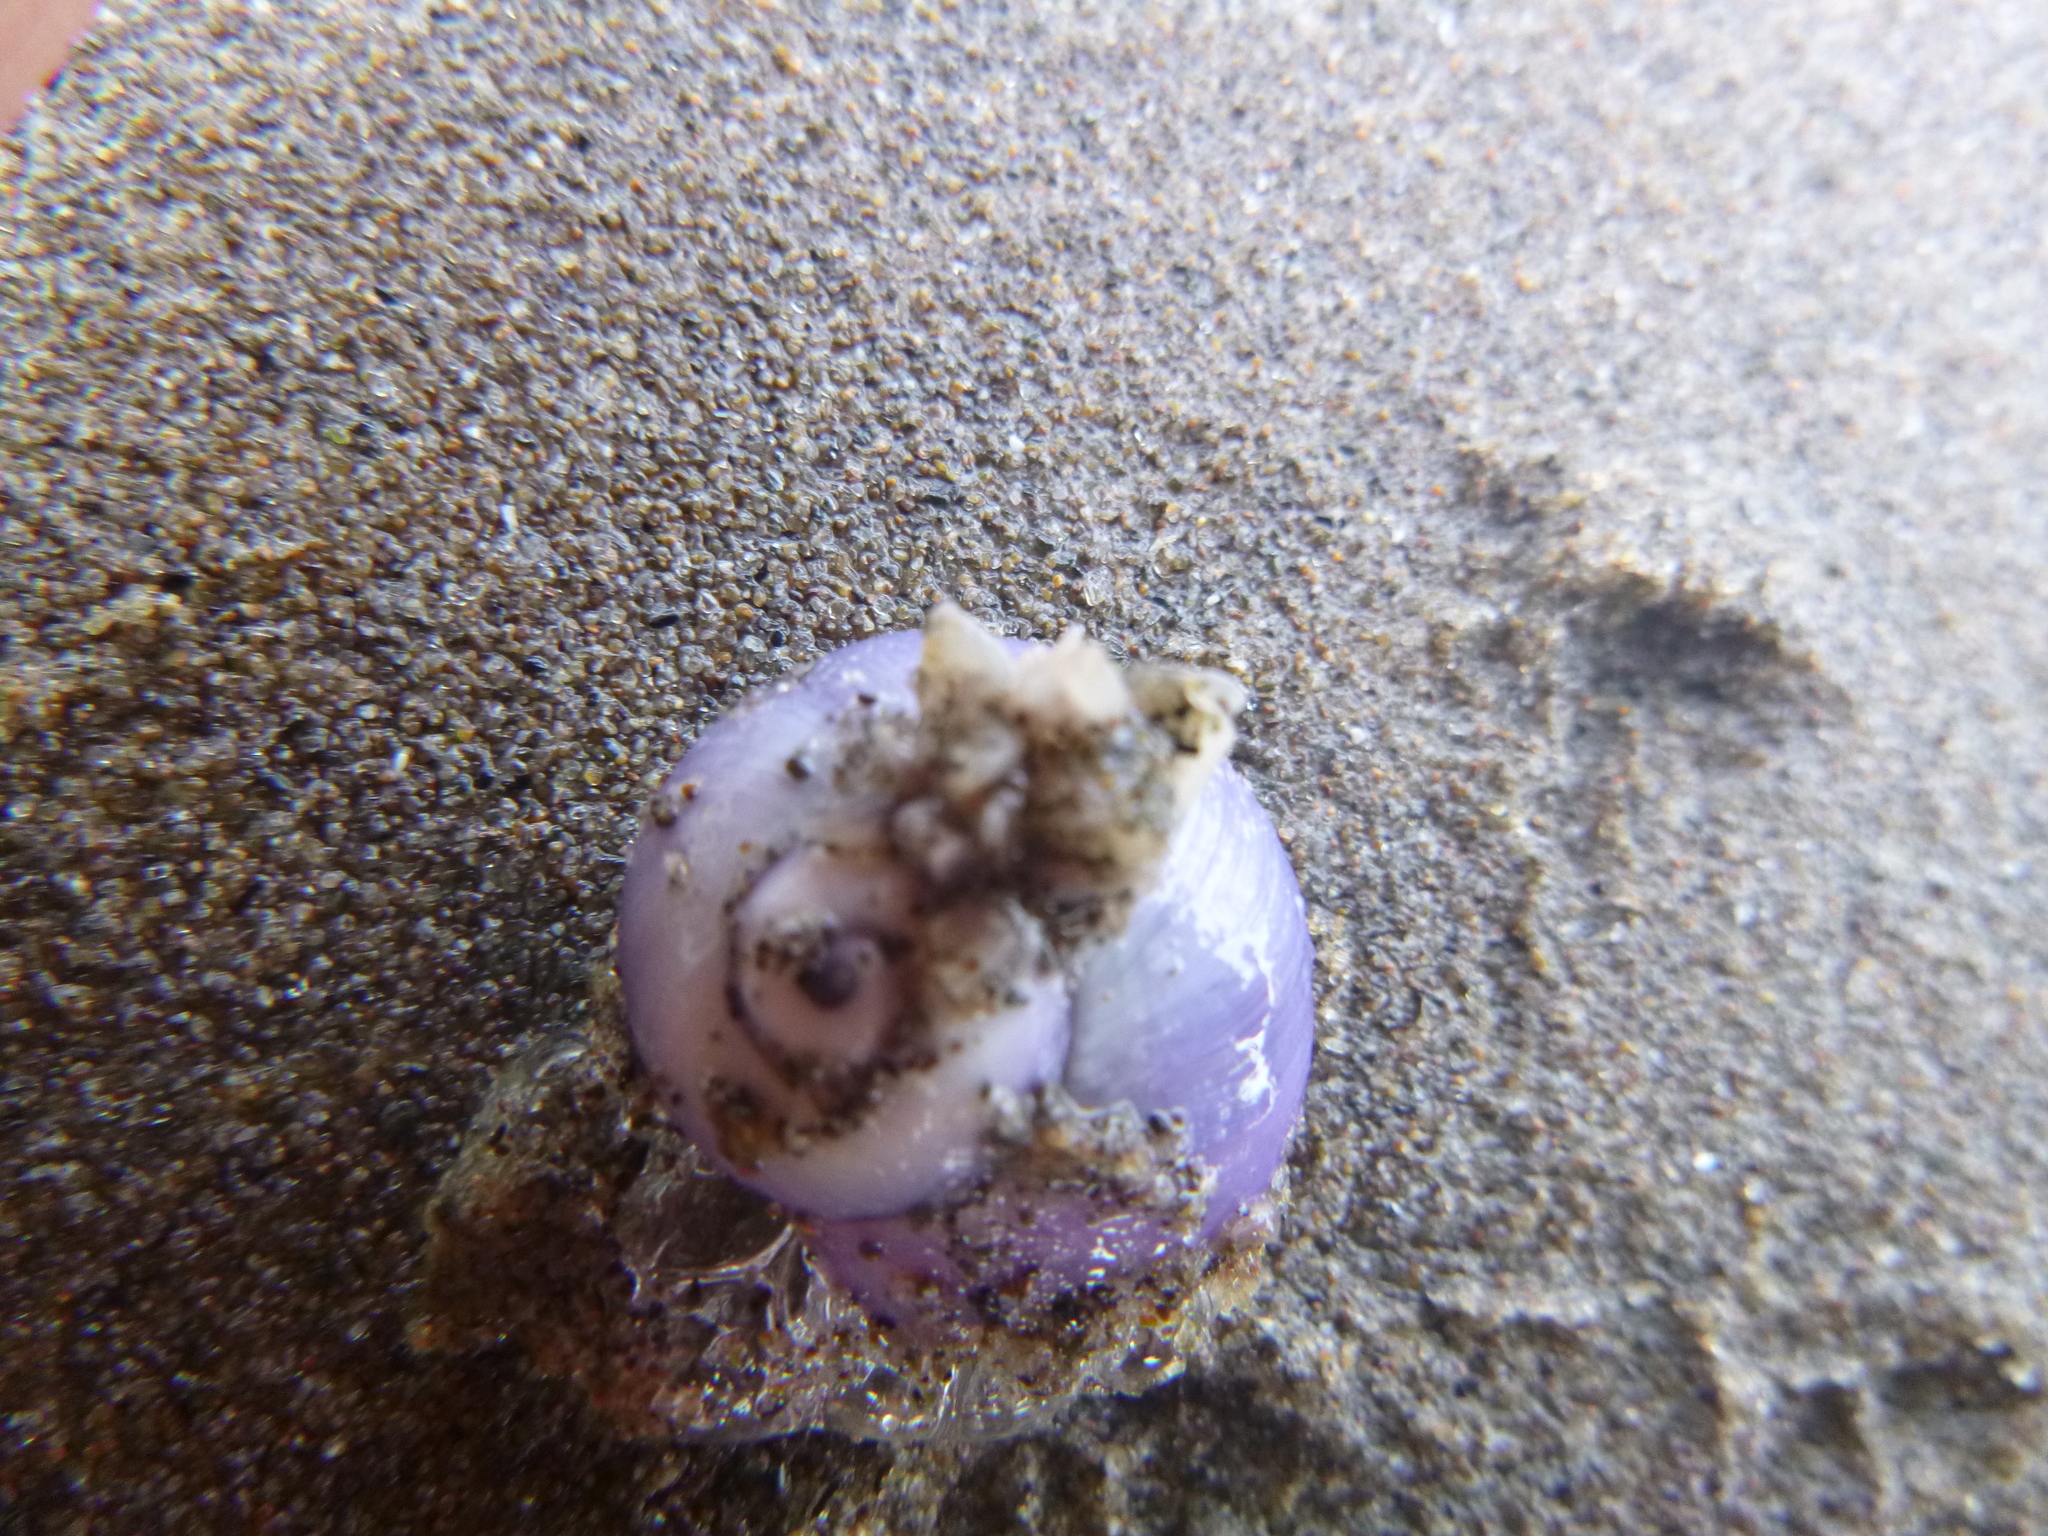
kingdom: Animalia
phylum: Arthropoda
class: Maxillopoda
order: Pedunculata
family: Lepadidae
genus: Lepas
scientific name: Lepas pectinata
